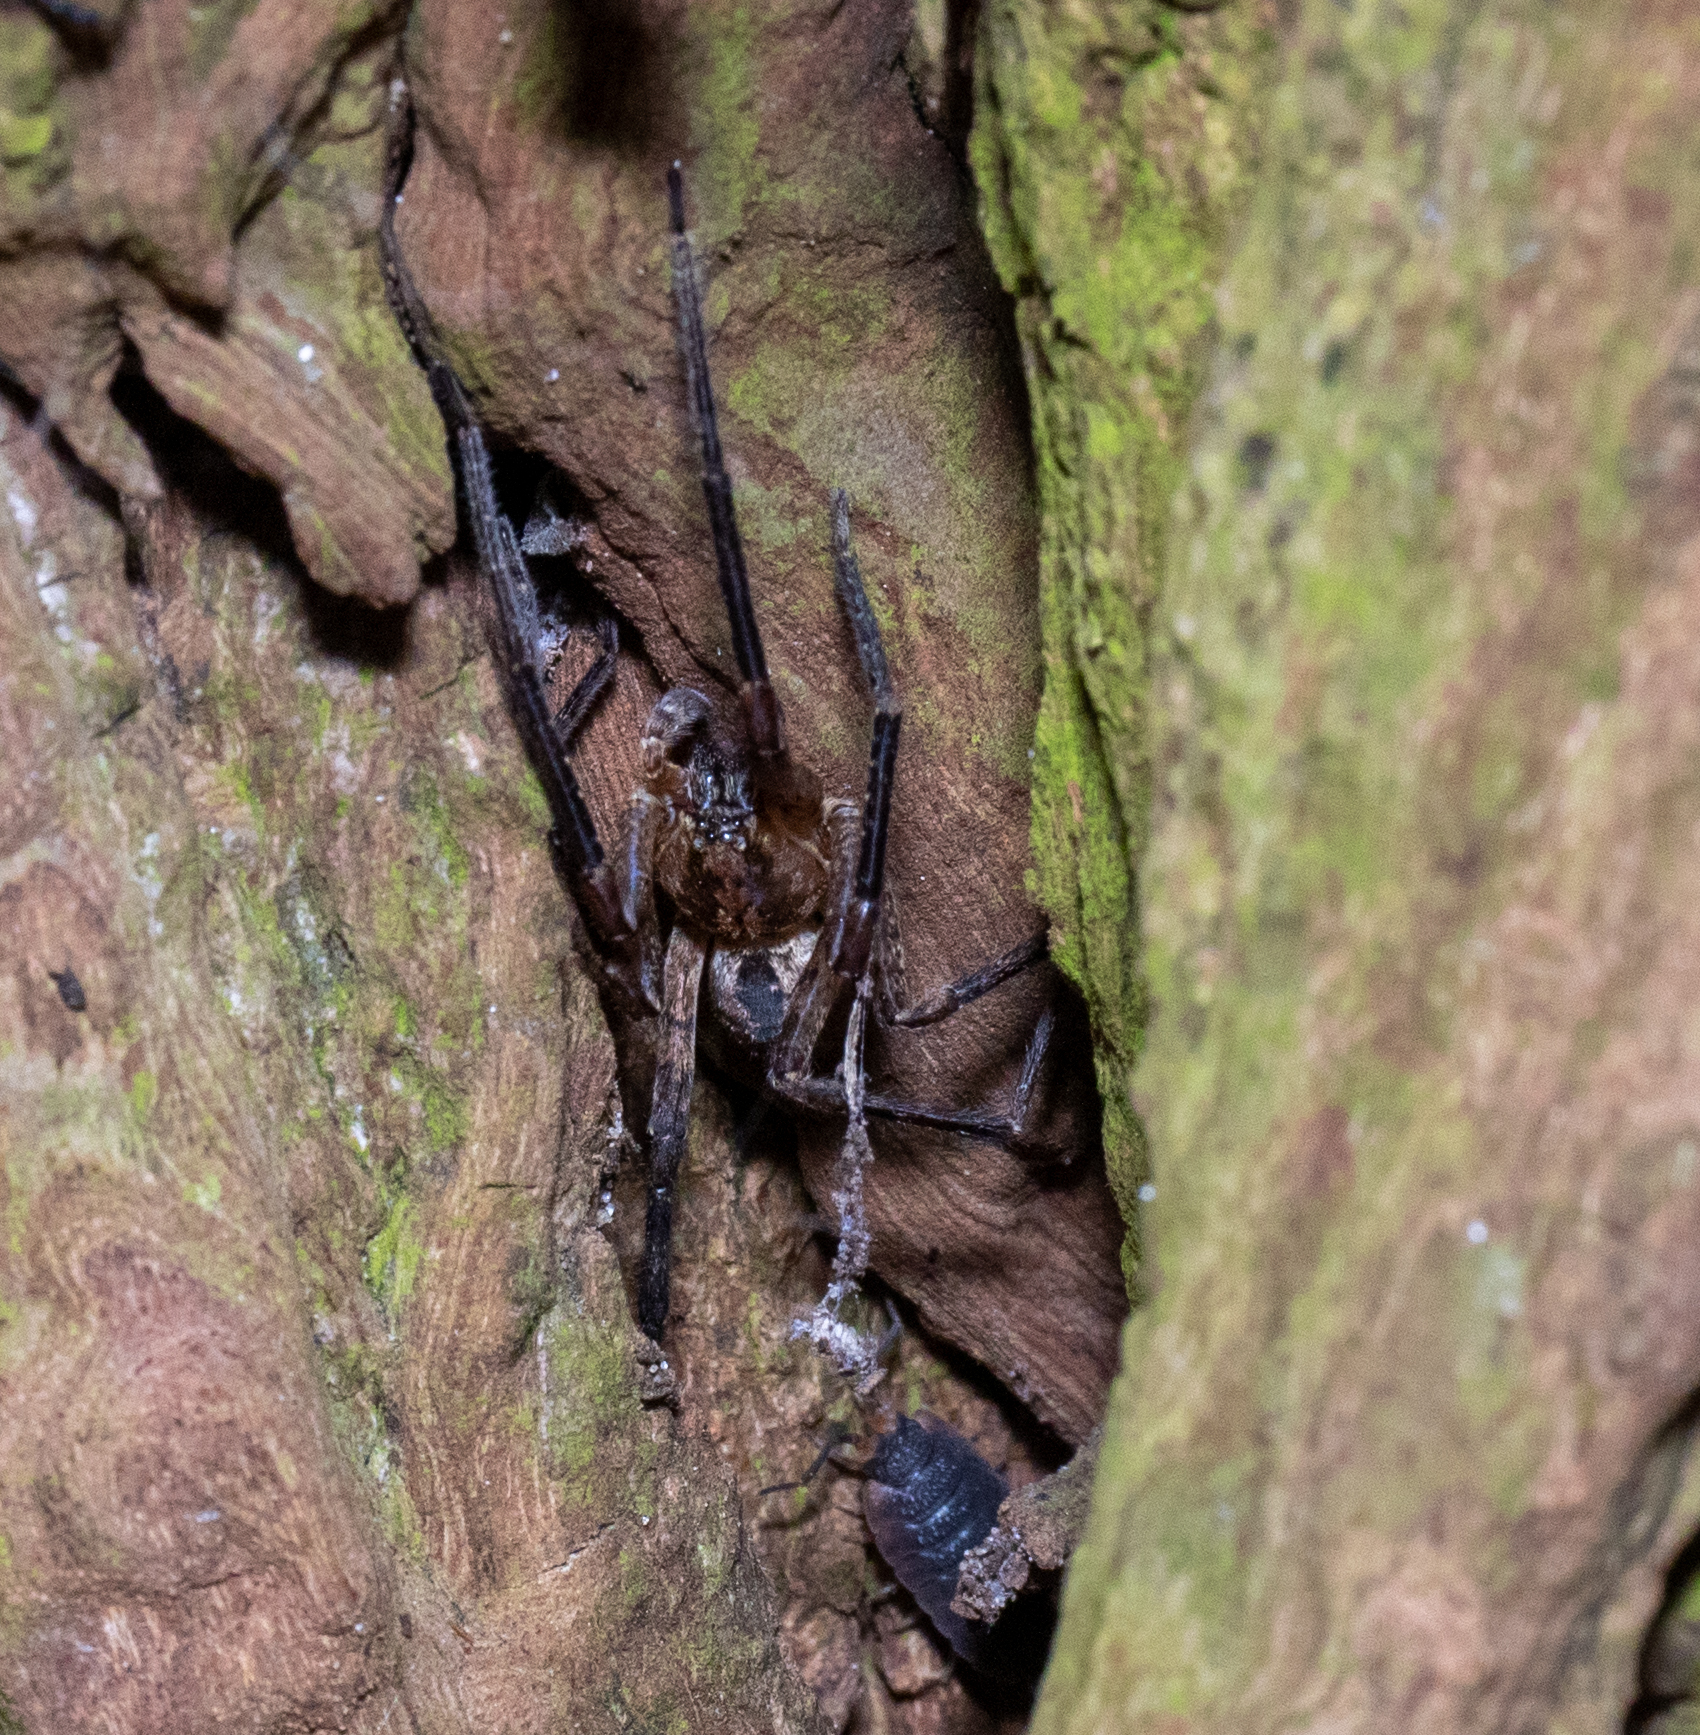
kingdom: Animalia
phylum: Arthropoda
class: Arachnida
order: Araneae
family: Zoropsidae
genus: Zoropsis
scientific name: Zoropsis spinimana
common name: Zoropsid spider
